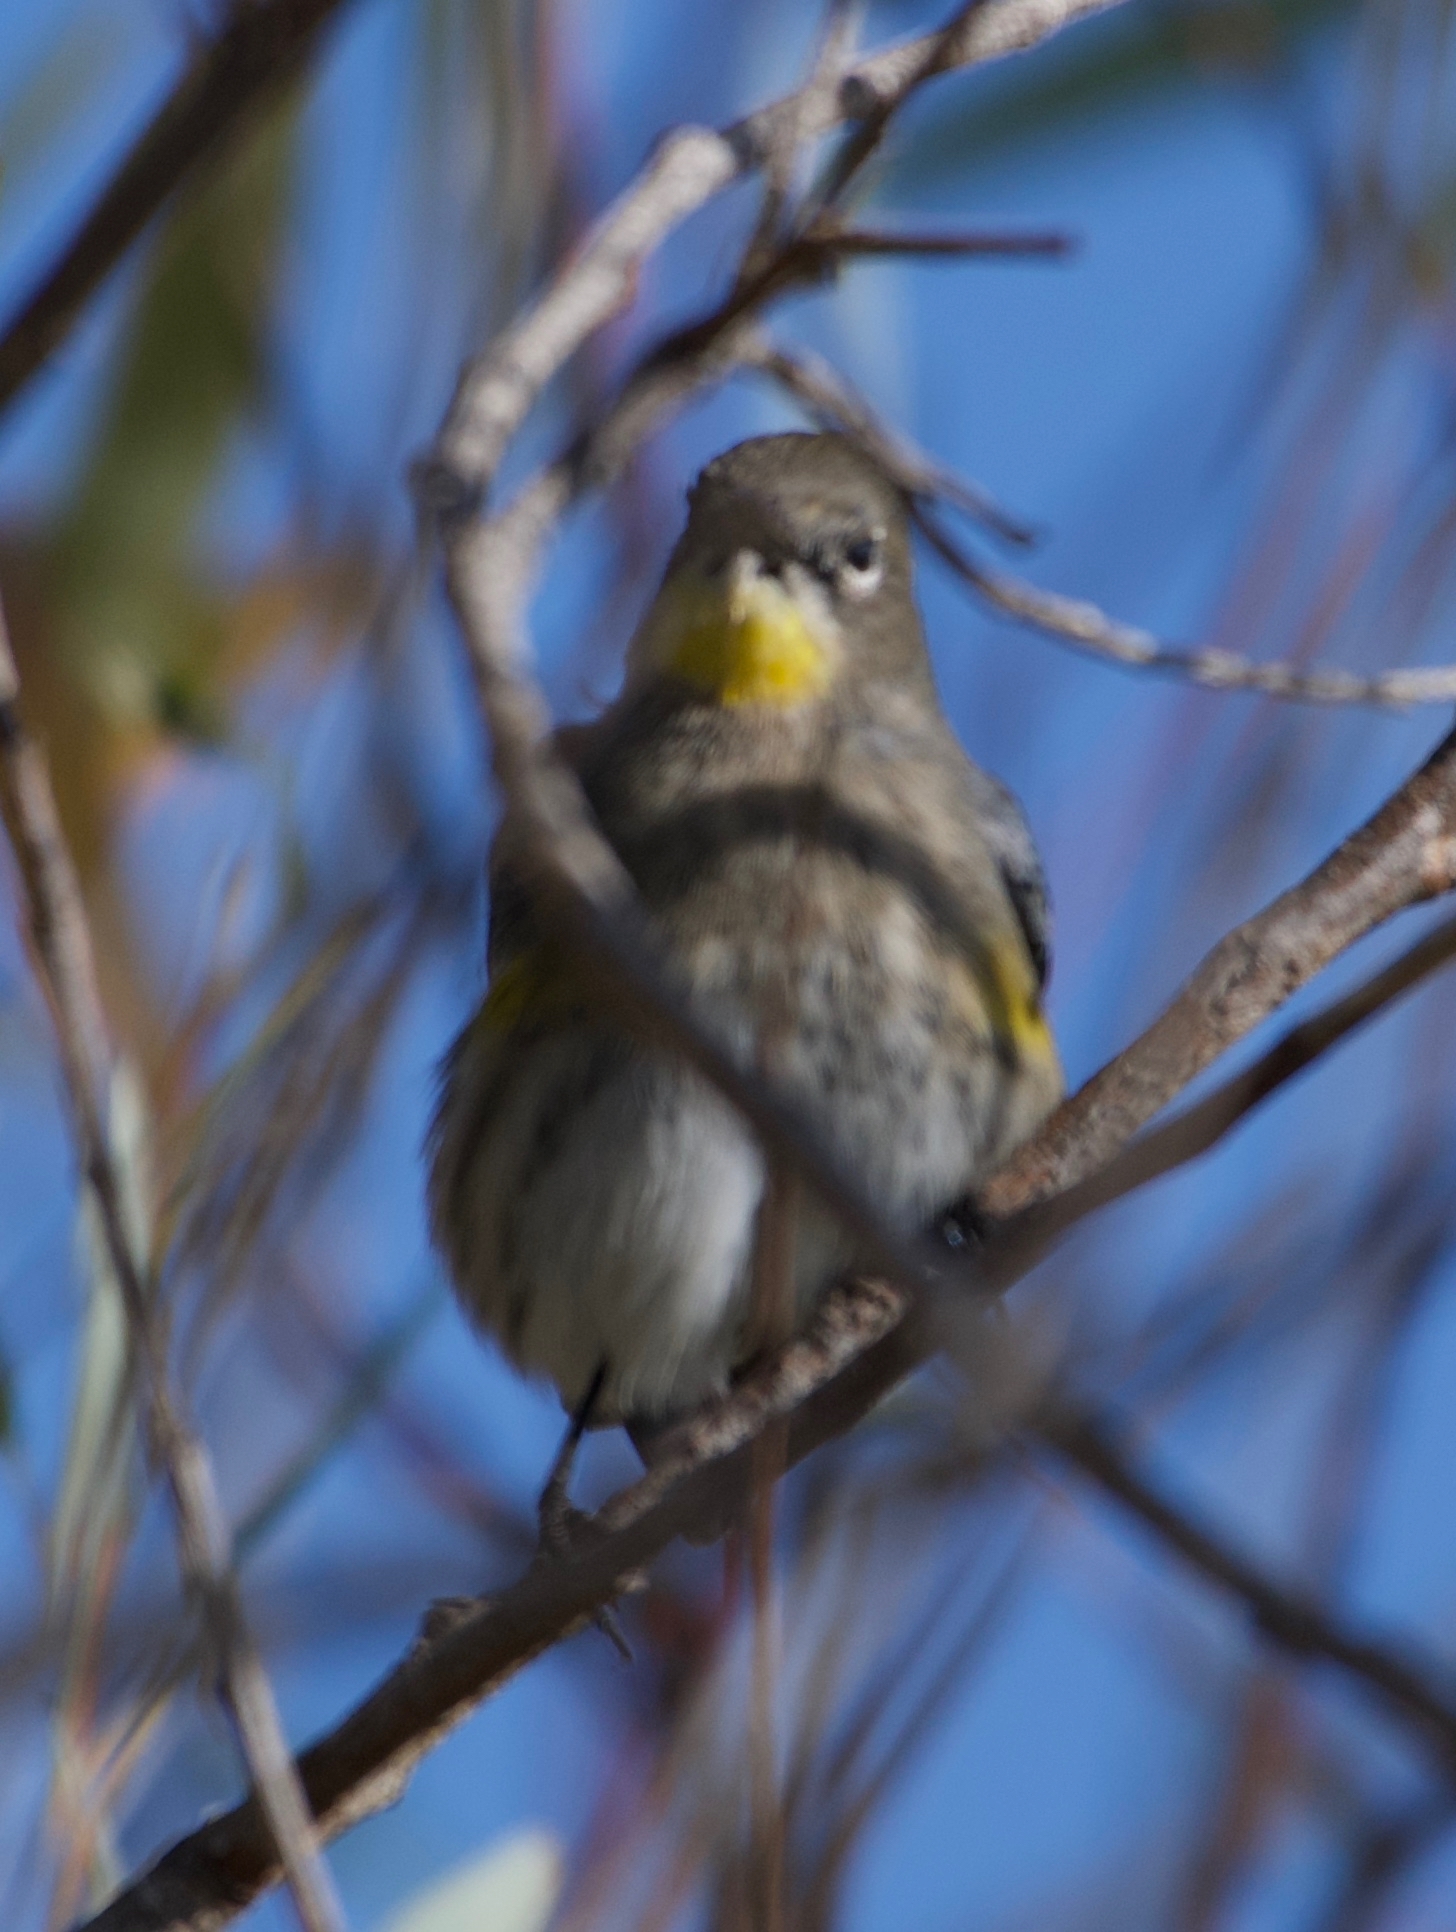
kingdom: Animalia
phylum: Chordata
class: Aves
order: Passeriformes
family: Parulidae
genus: Setophaga
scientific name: Setophaga coronata
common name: Myrtle warbler
